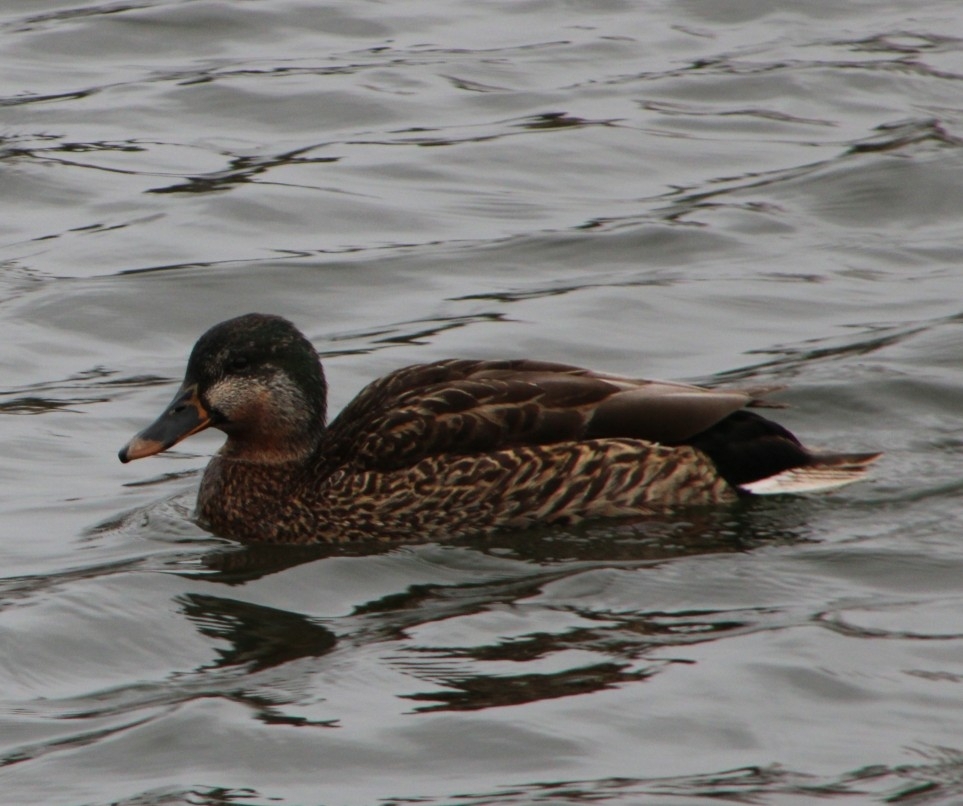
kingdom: Animalia
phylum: Chordata
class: Aves
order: Anseriformes
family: Anatidae
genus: Anas
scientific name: Anas platyrhynchos
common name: Mallard
